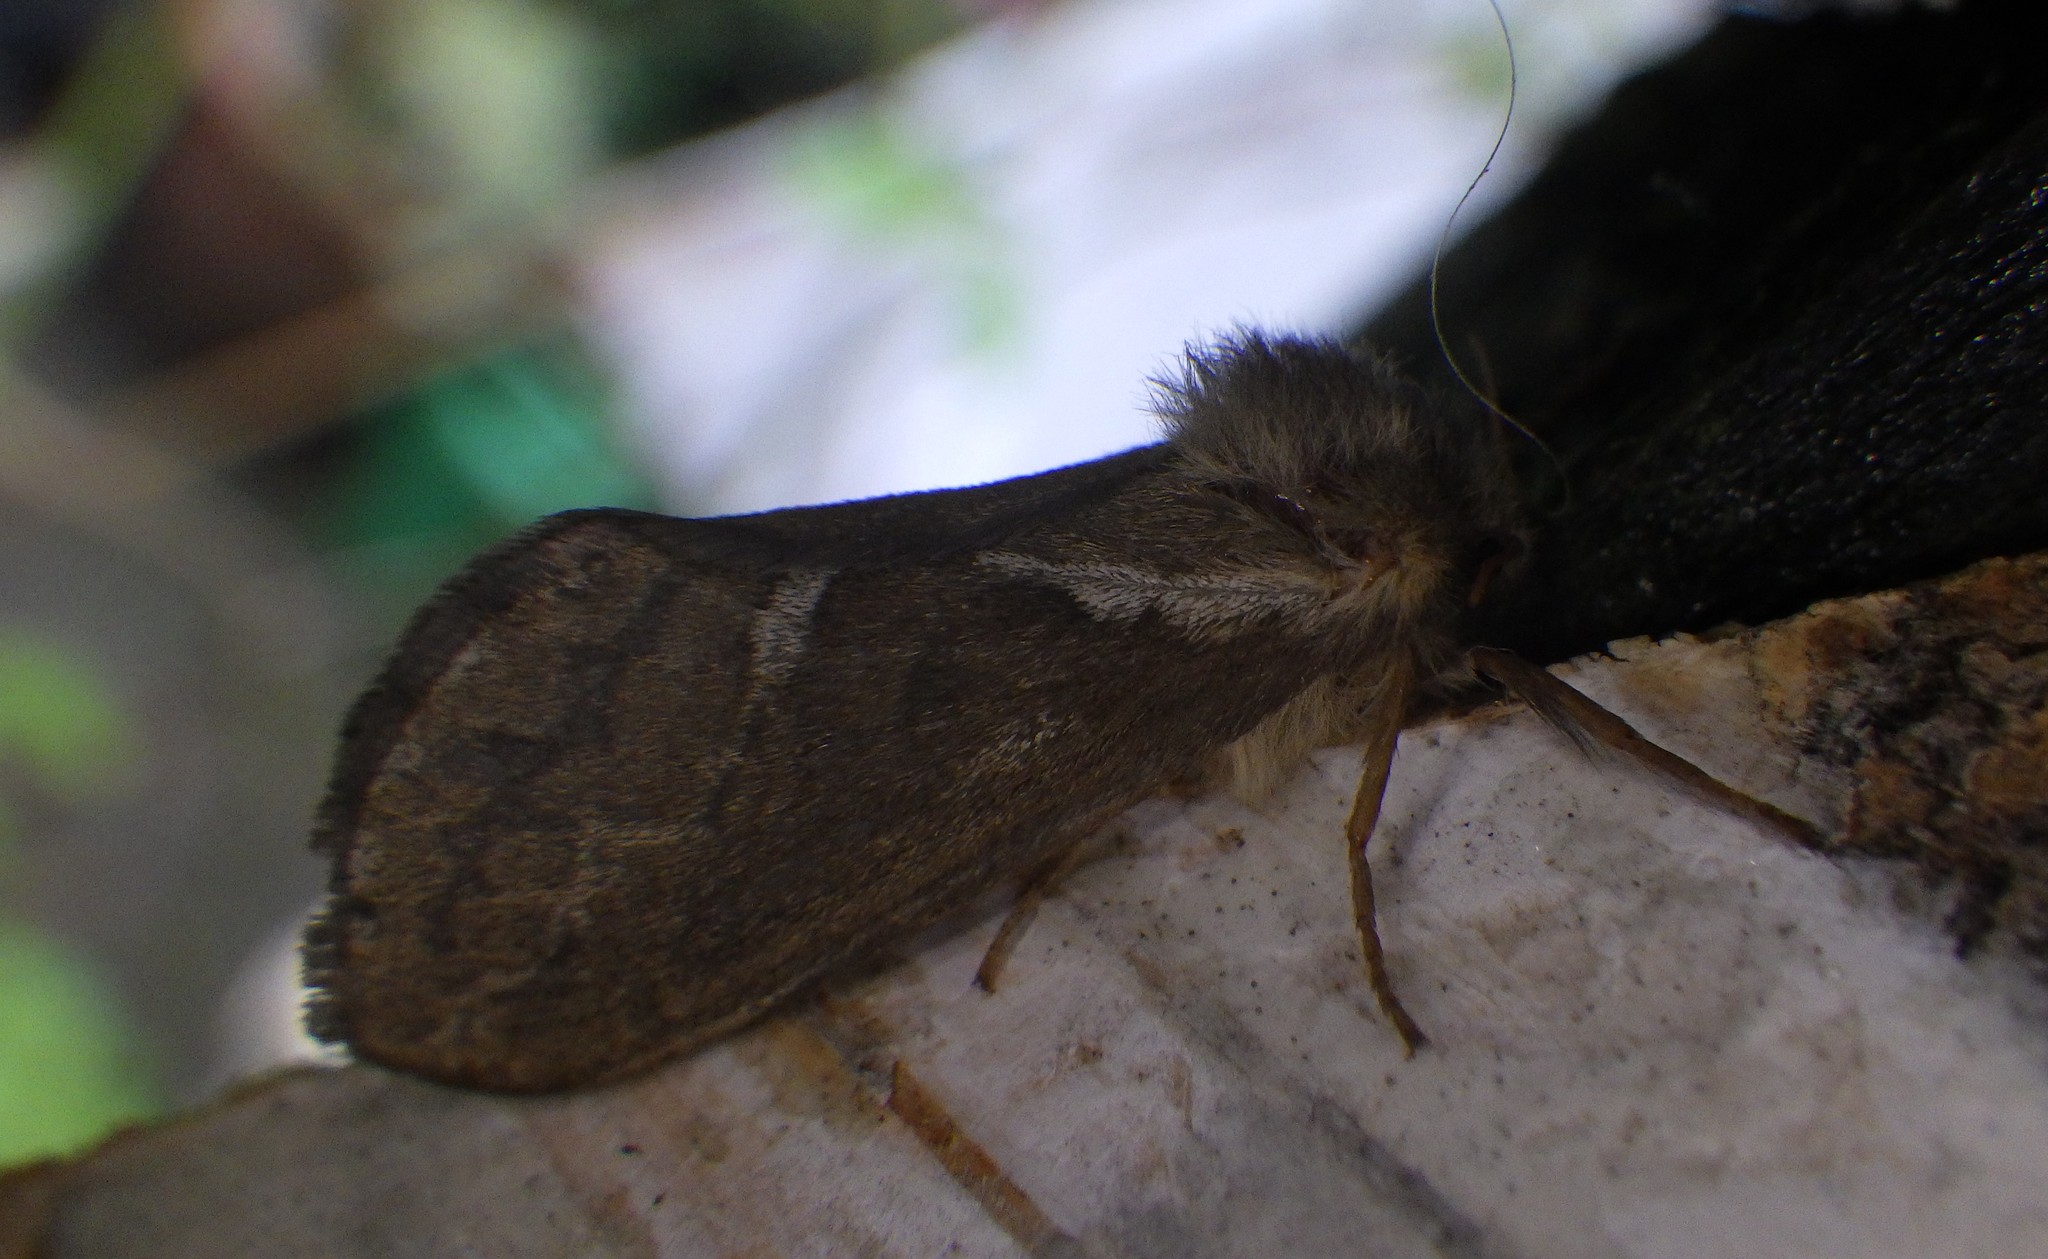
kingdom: Animalia
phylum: Arthropoda
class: Insecta
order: Lepidoptera
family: Hepialidae
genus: Korscheltellus
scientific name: Korscheltellus lupulina
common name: Common swift
